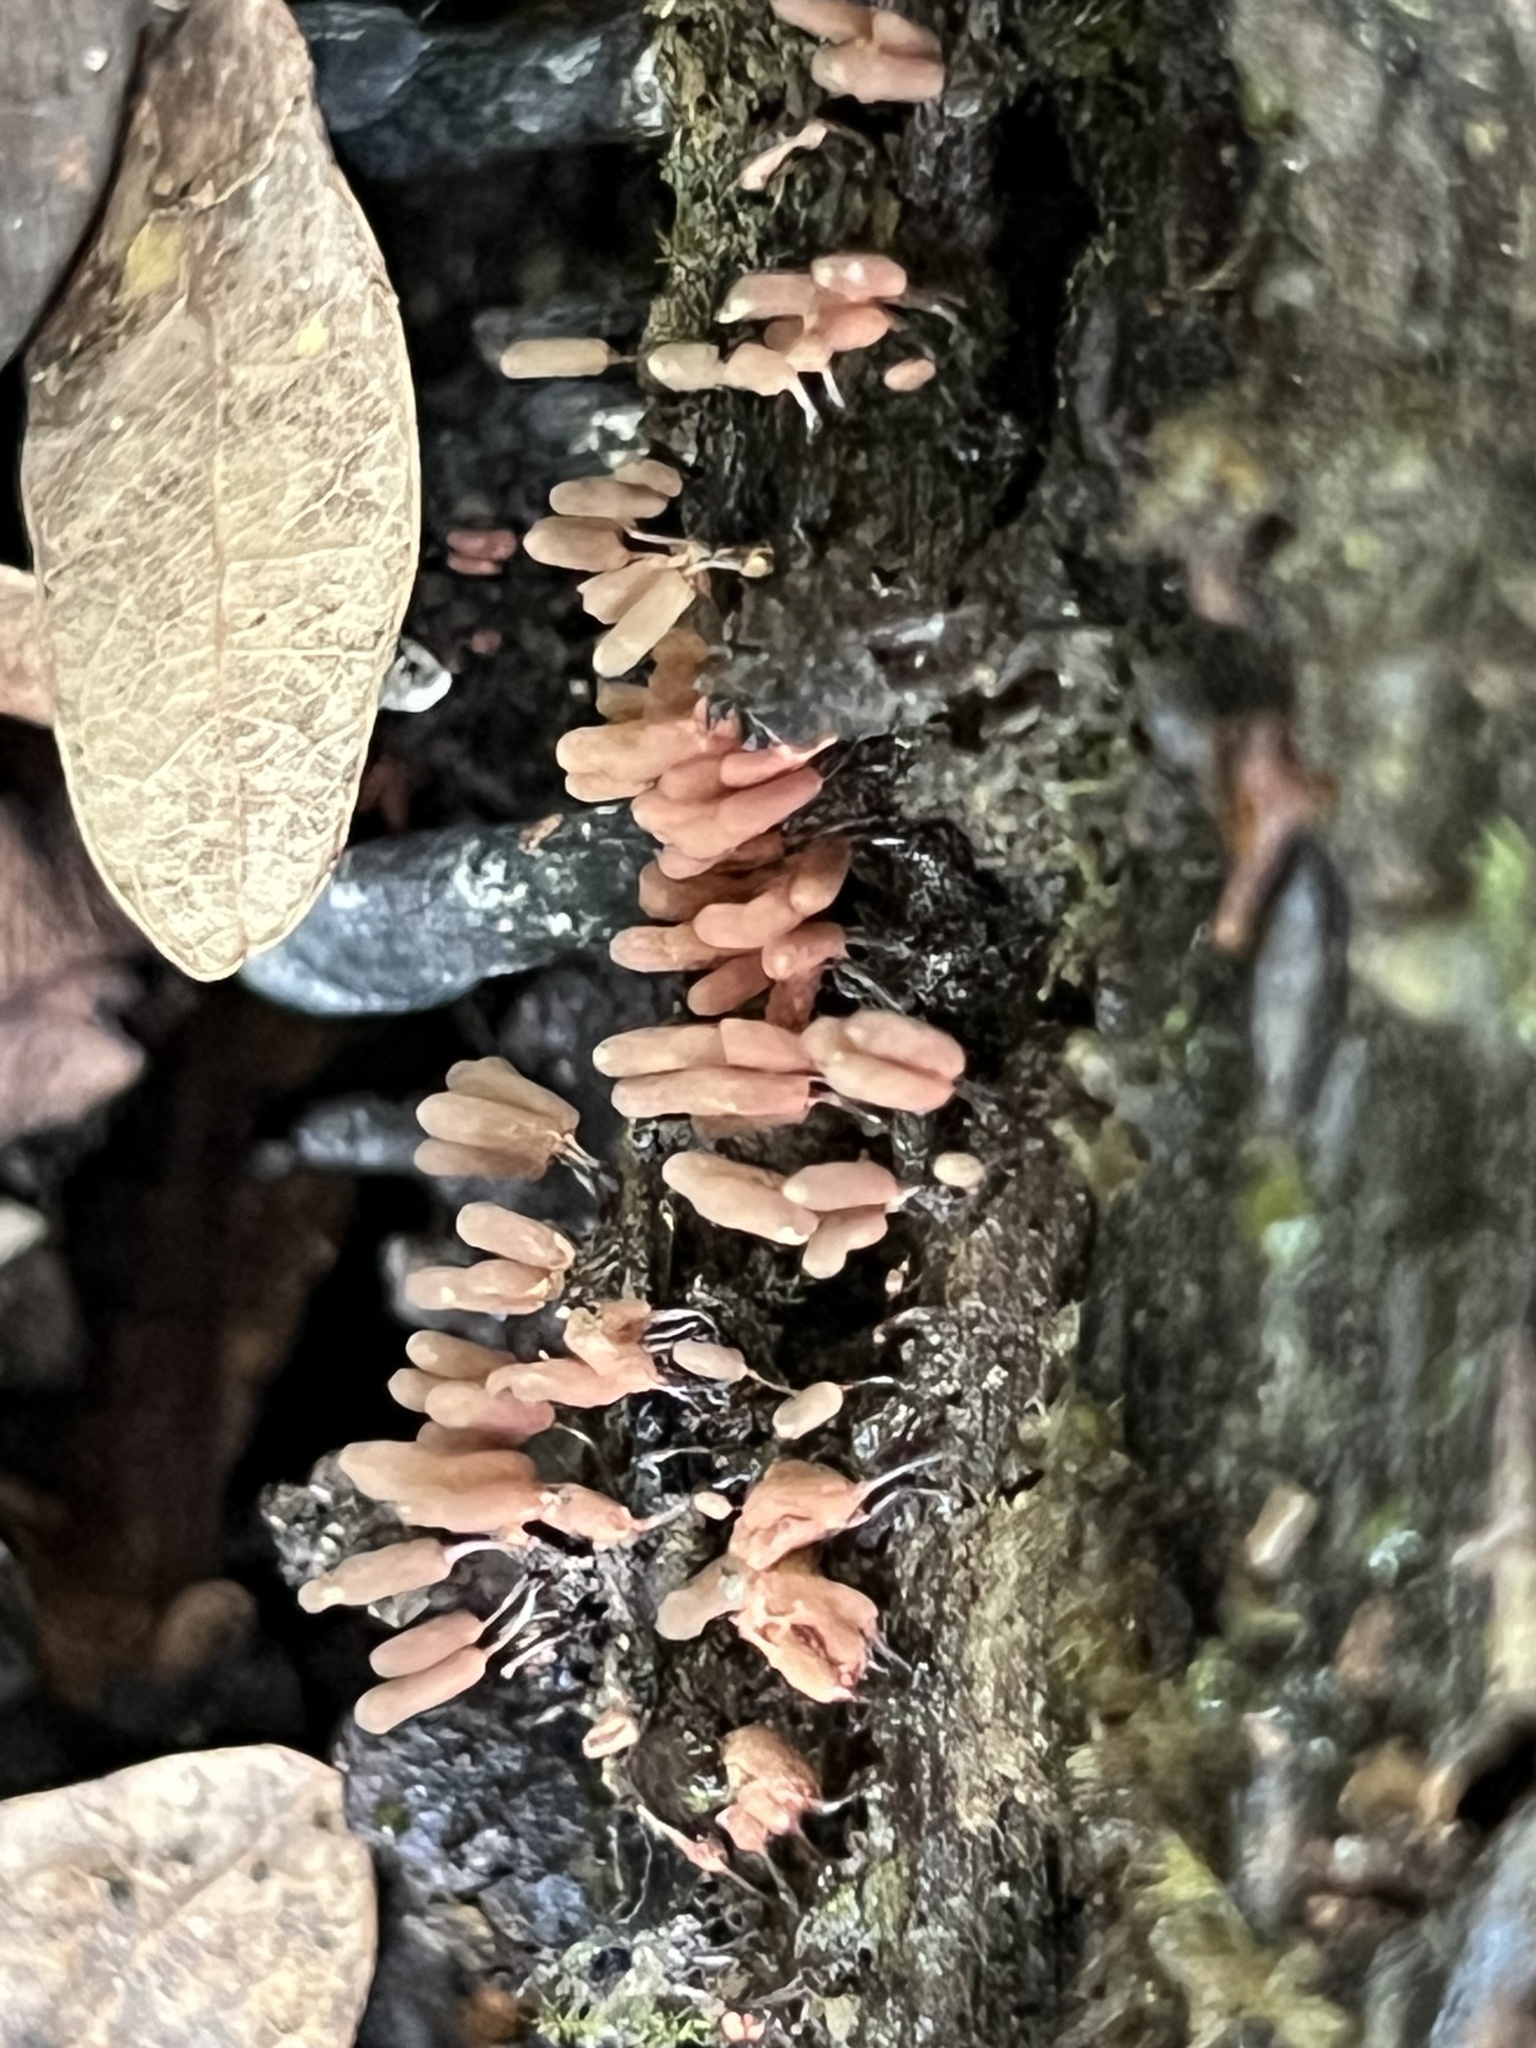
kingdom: Protozoa
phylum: Mycetozoa
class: Myxomycetes
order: Trichiales
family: Arcyriaceae
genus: Arcyria
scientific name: Arcyria denudata
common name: Carnival candy slime mold
